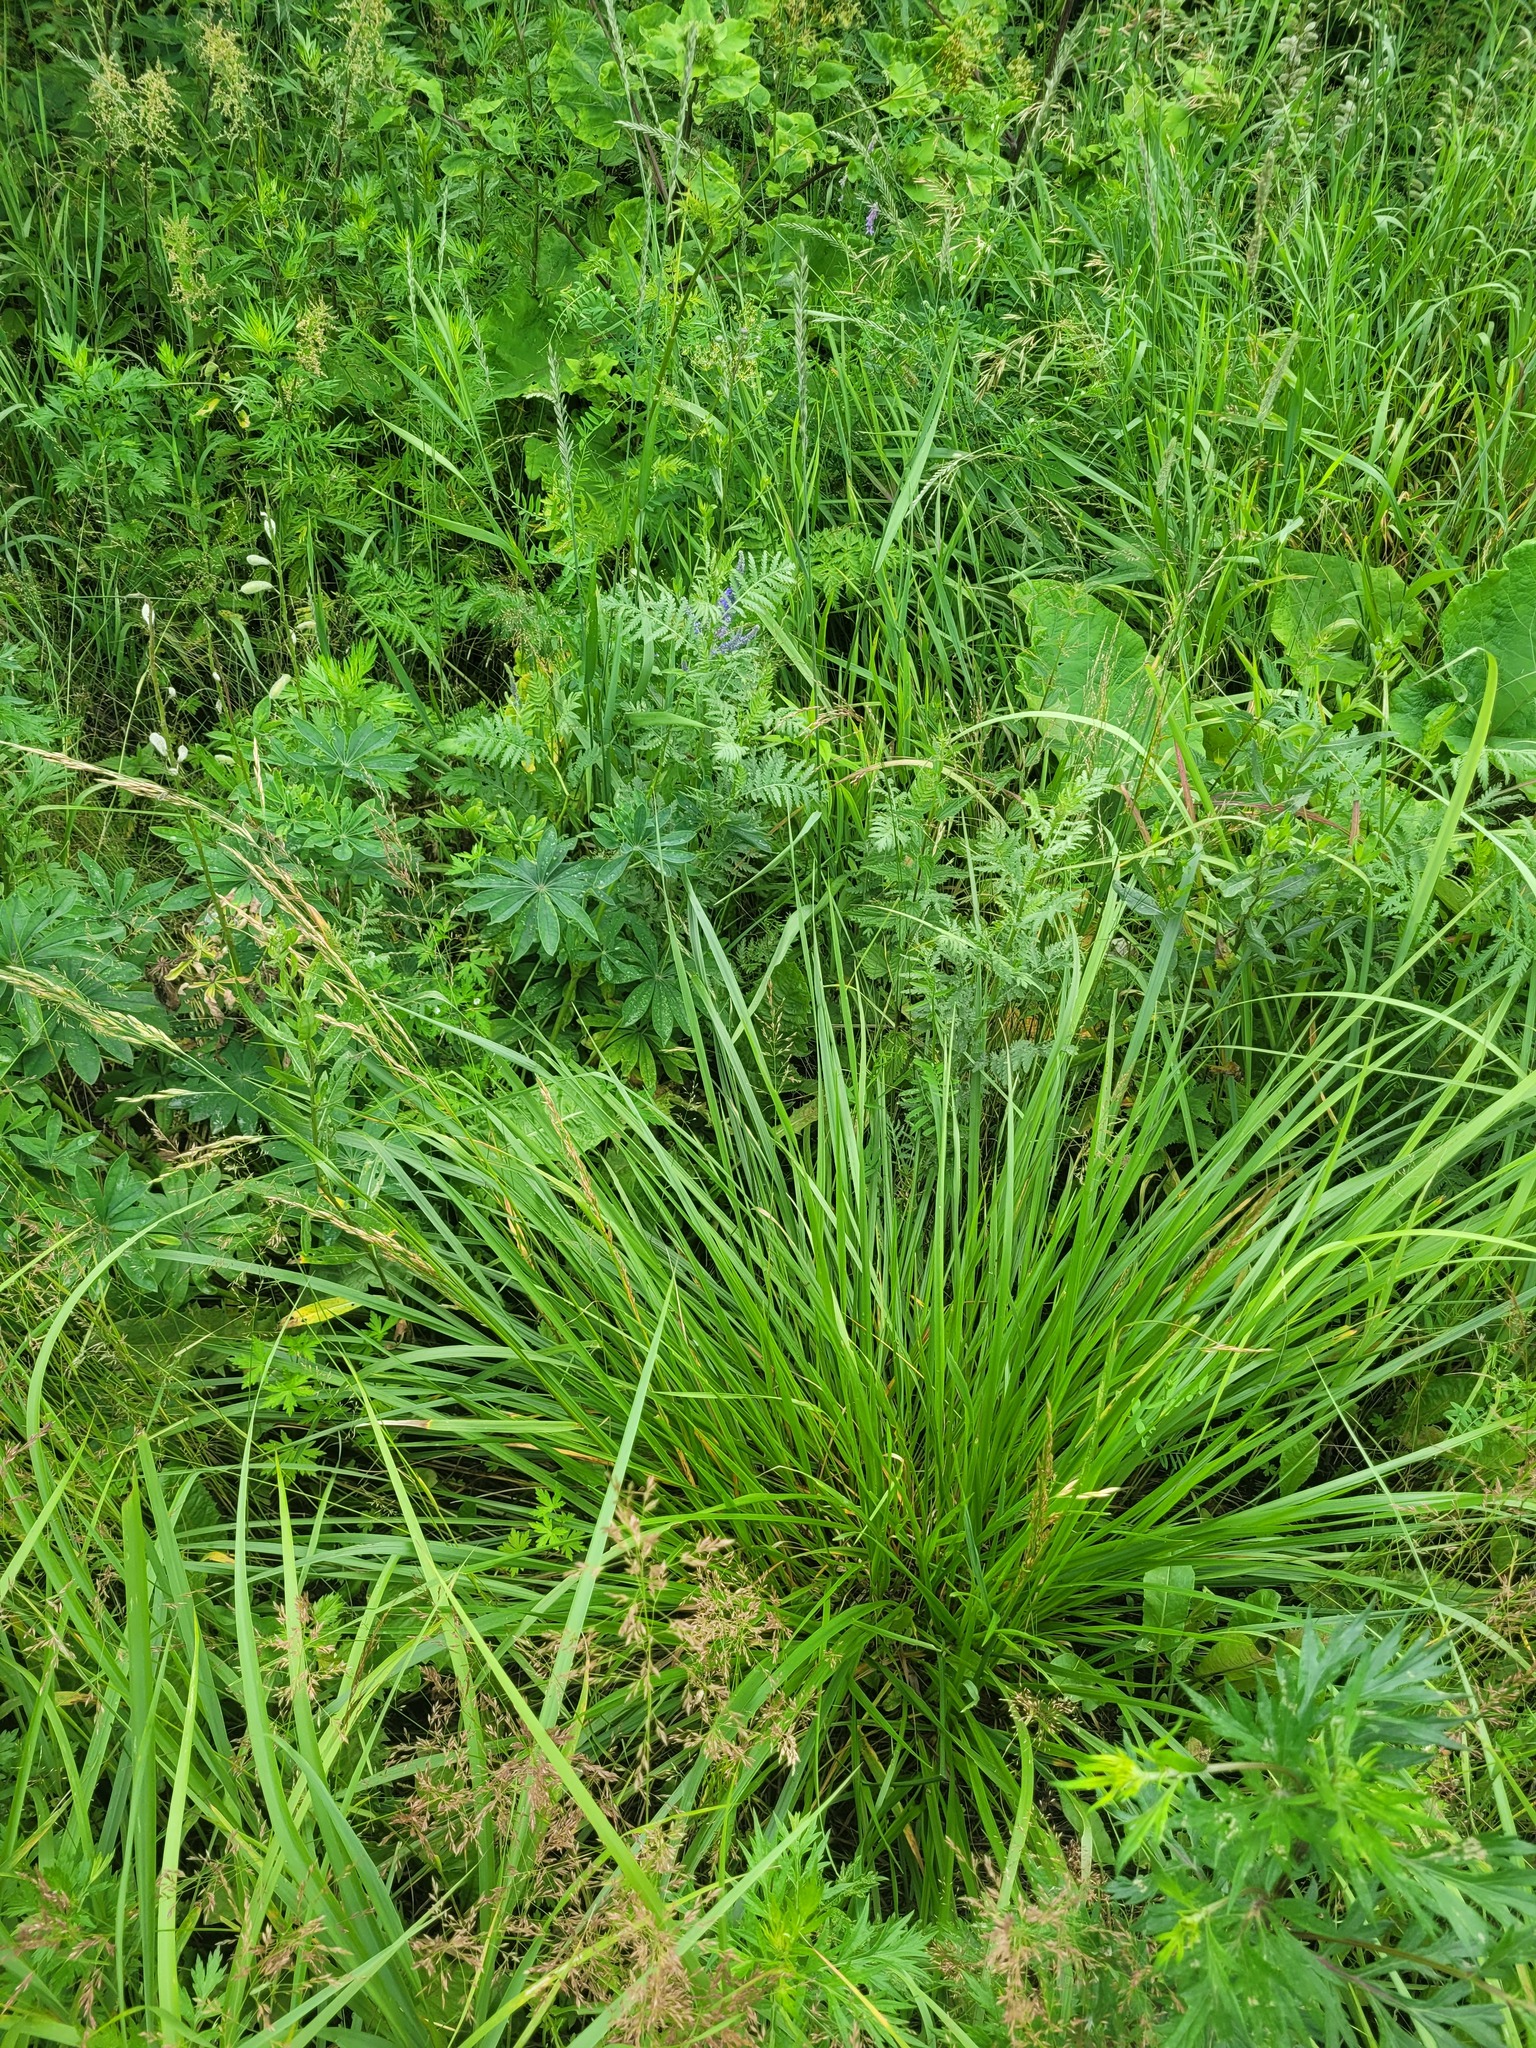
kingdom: Plantae
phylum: Tracheophyta
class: Liliopsida
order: Poales
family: Poaceae
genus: Lolium
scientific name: Lolium arundinaceum
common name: Reed fescue
